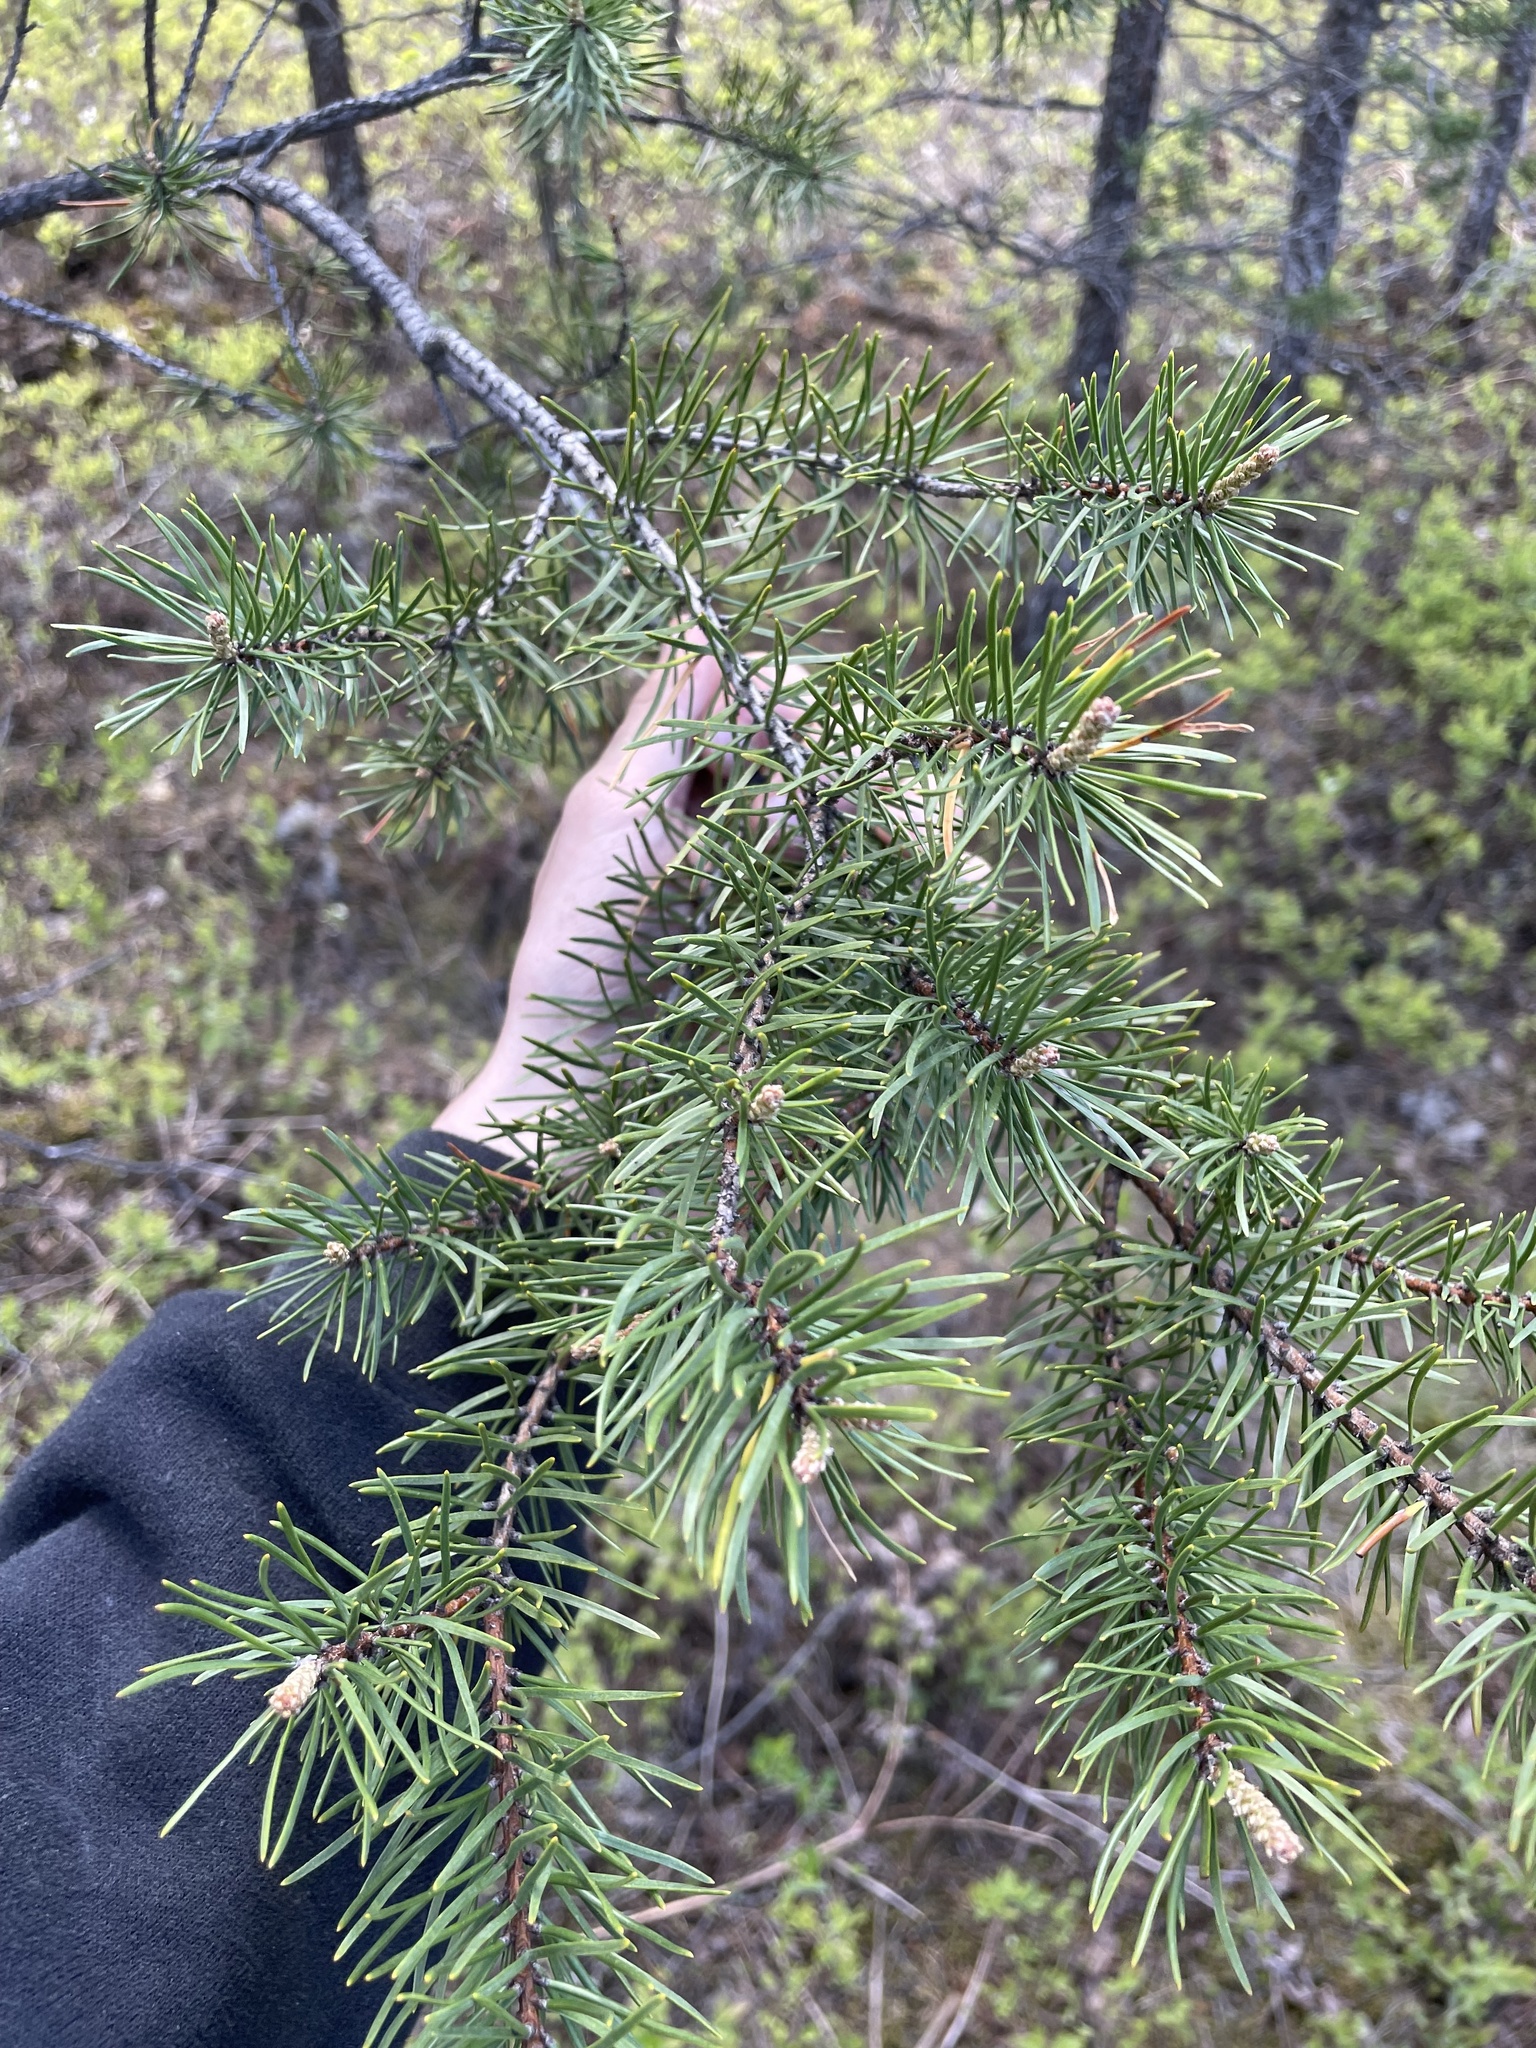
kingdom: Plantae
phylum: Tracheophyta
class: Pinopsida
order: Pinales
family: Pinaceae
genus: Pinus
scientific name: Pinus banksiana
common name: Jack pine
